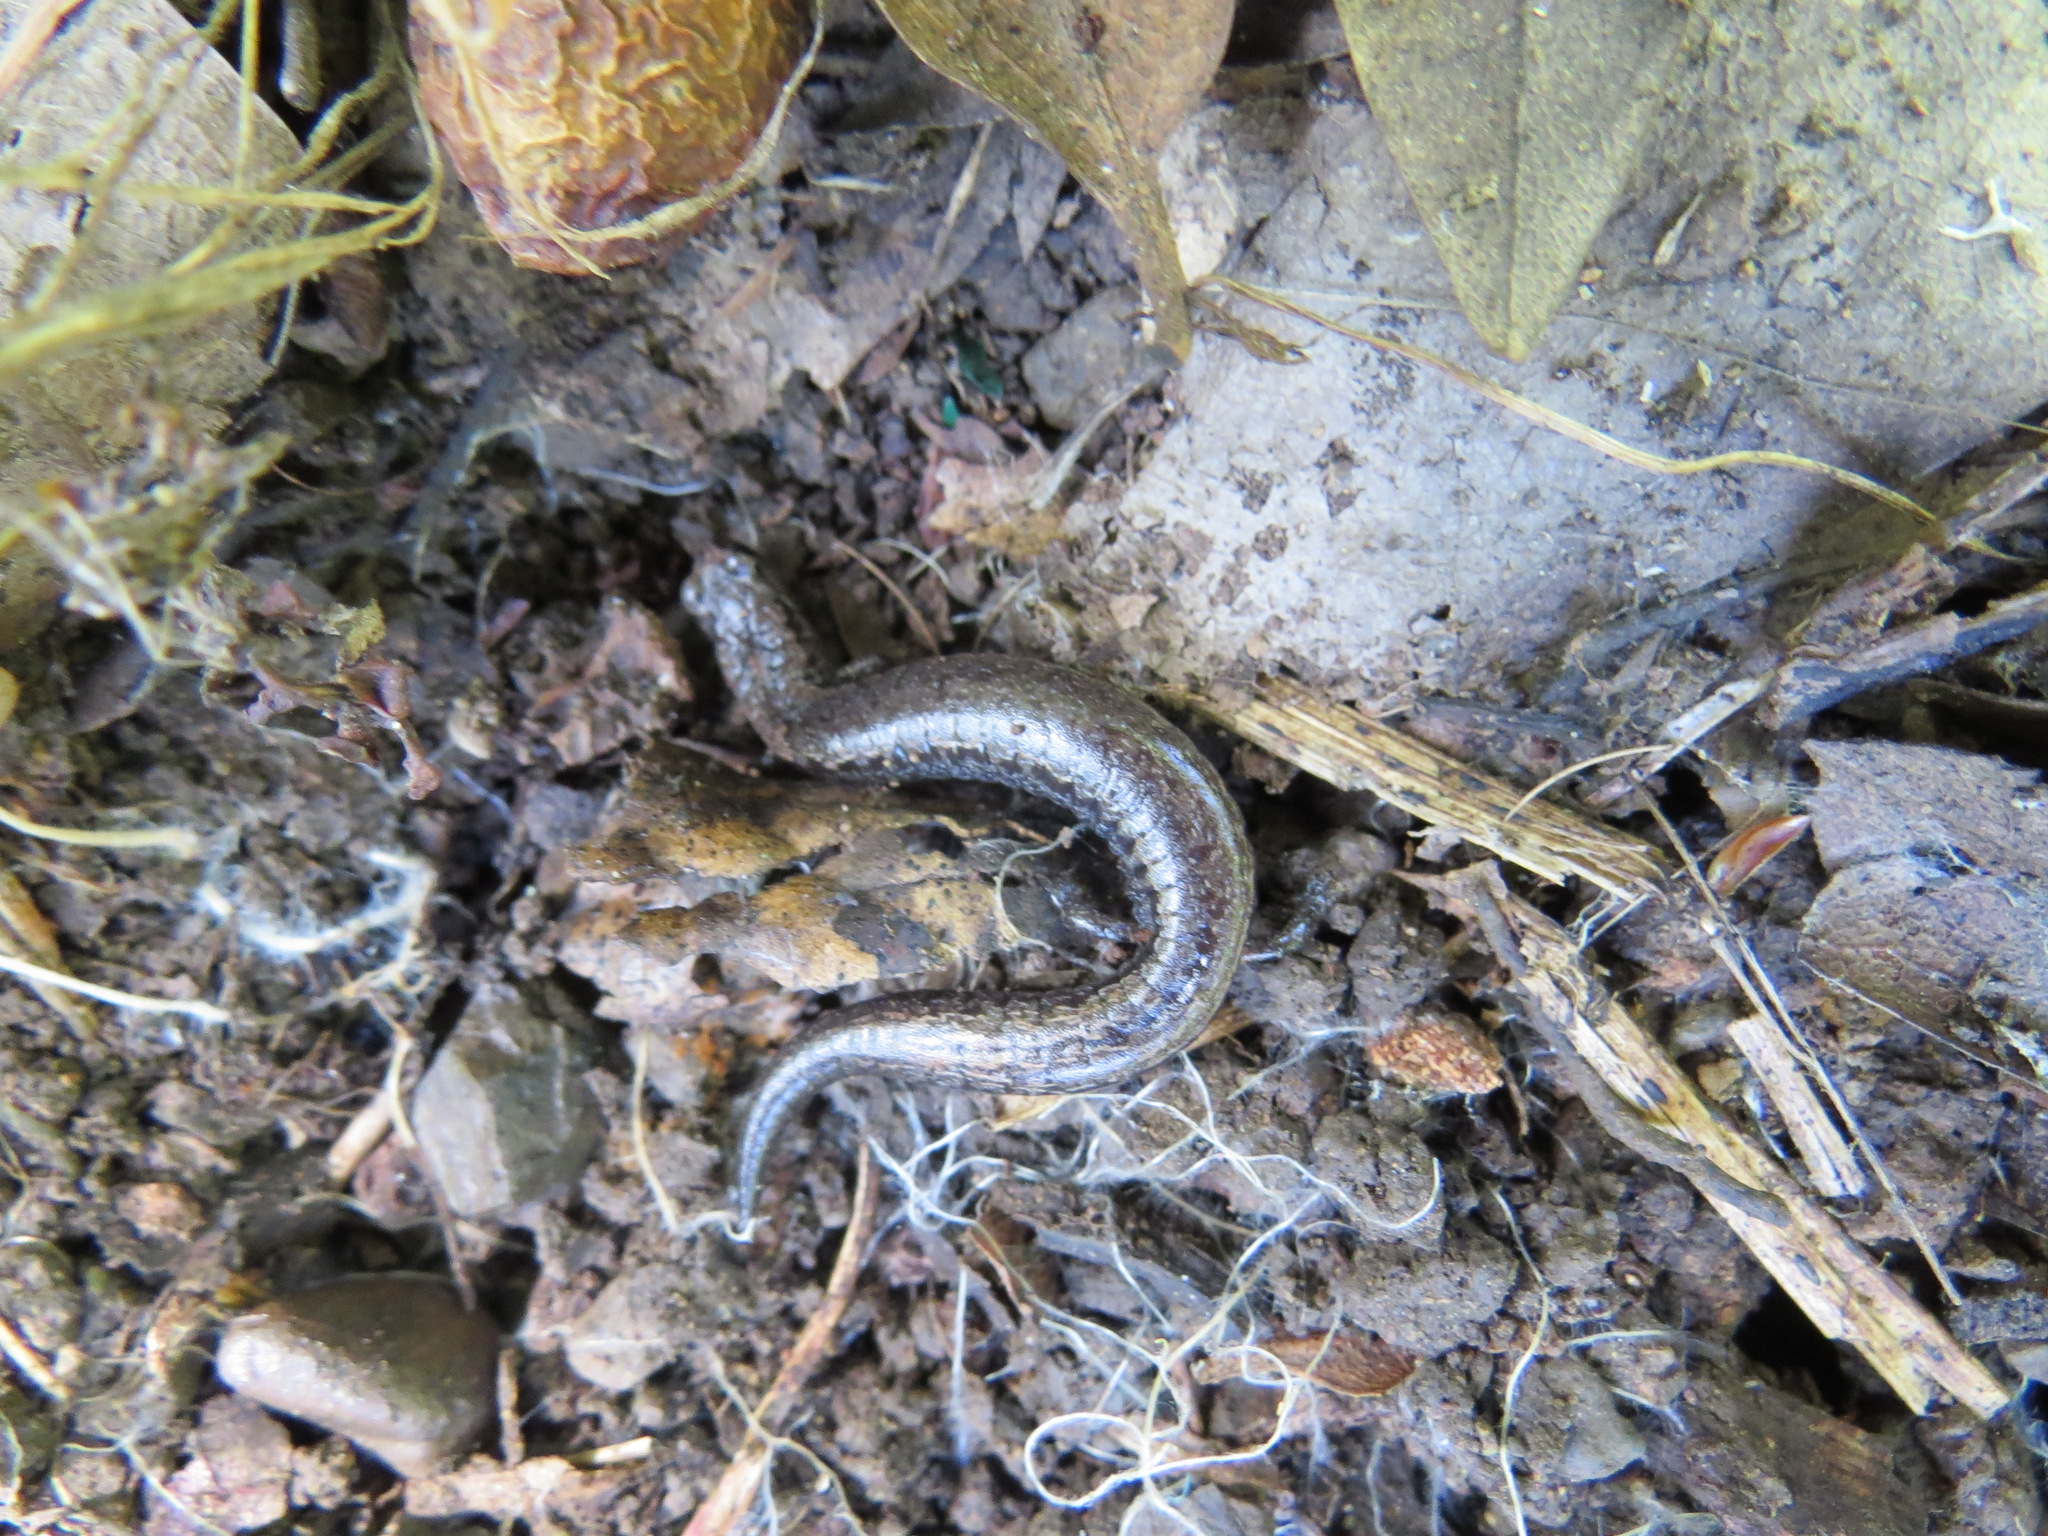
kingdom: Animalia
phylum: Chordata
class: Amphibia
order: Caudata
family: Plethodontidae
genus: Batrachoseps
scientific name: Batrachoseps attenuatus
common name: California slender salamander
